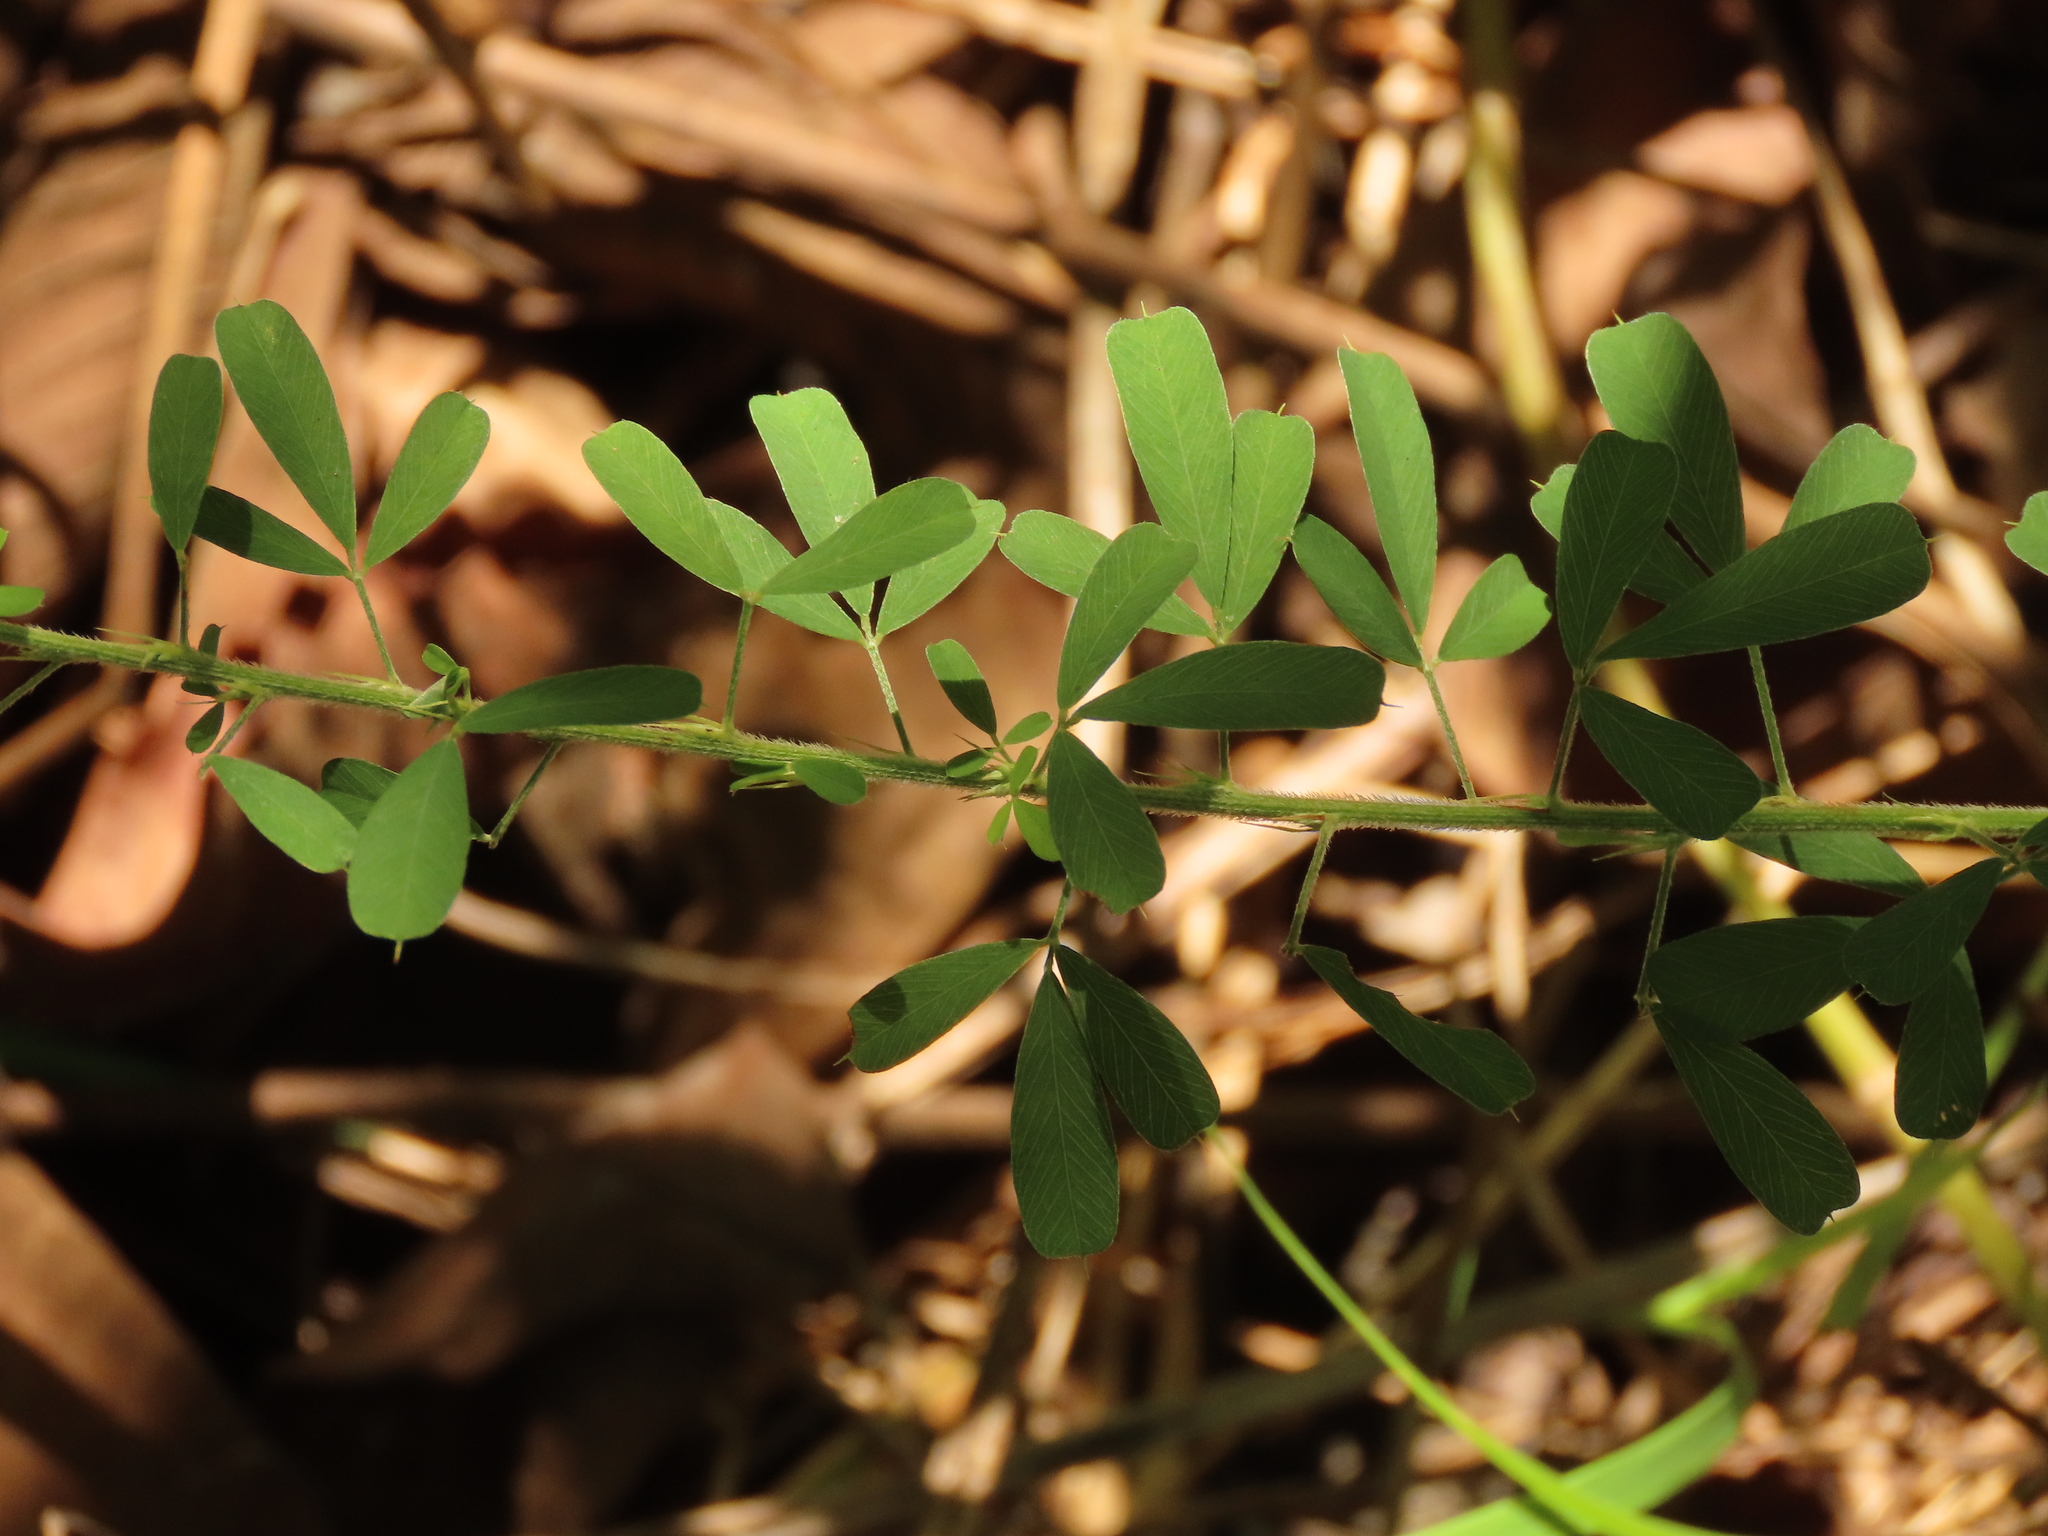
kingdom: Plantae
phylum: Tracheophyta
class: Magnoliopsida
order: Fabales
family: Fabaceae
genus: Lespedeza
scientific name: Lespedeza cuneata
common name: Chinese bush-clover
